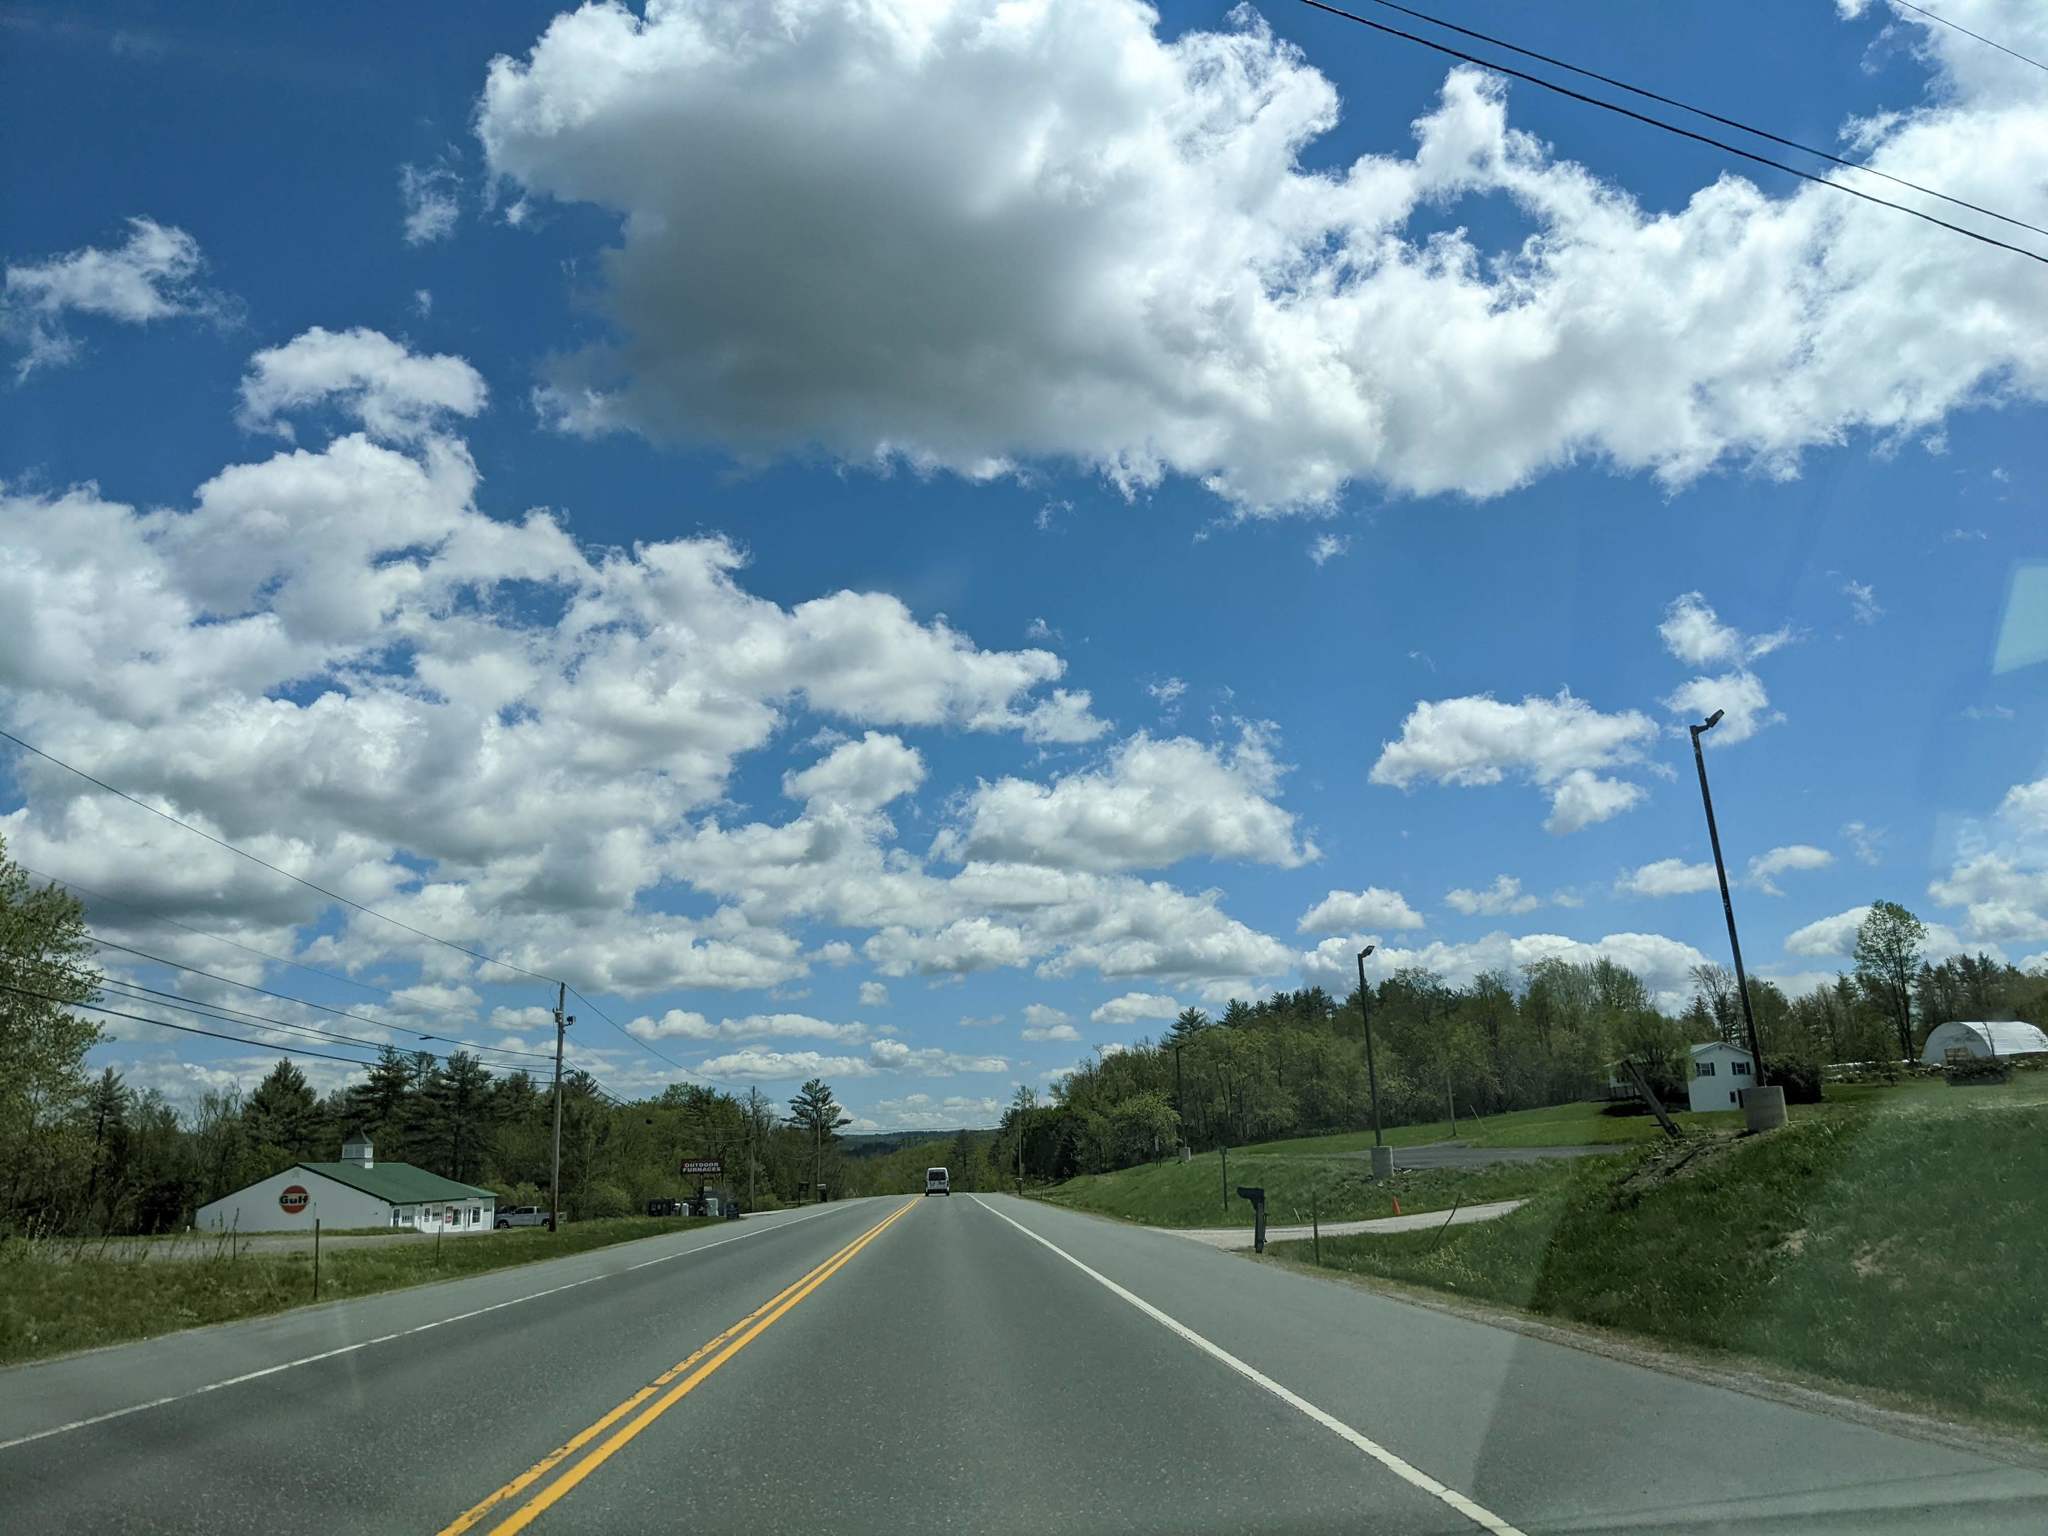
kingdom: Plantae
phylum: Tracheophyta
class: Pinopsida
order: Pinales
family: Pinaceae
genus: Pinus
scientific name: Pinus strobus
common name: Weymouth pine
